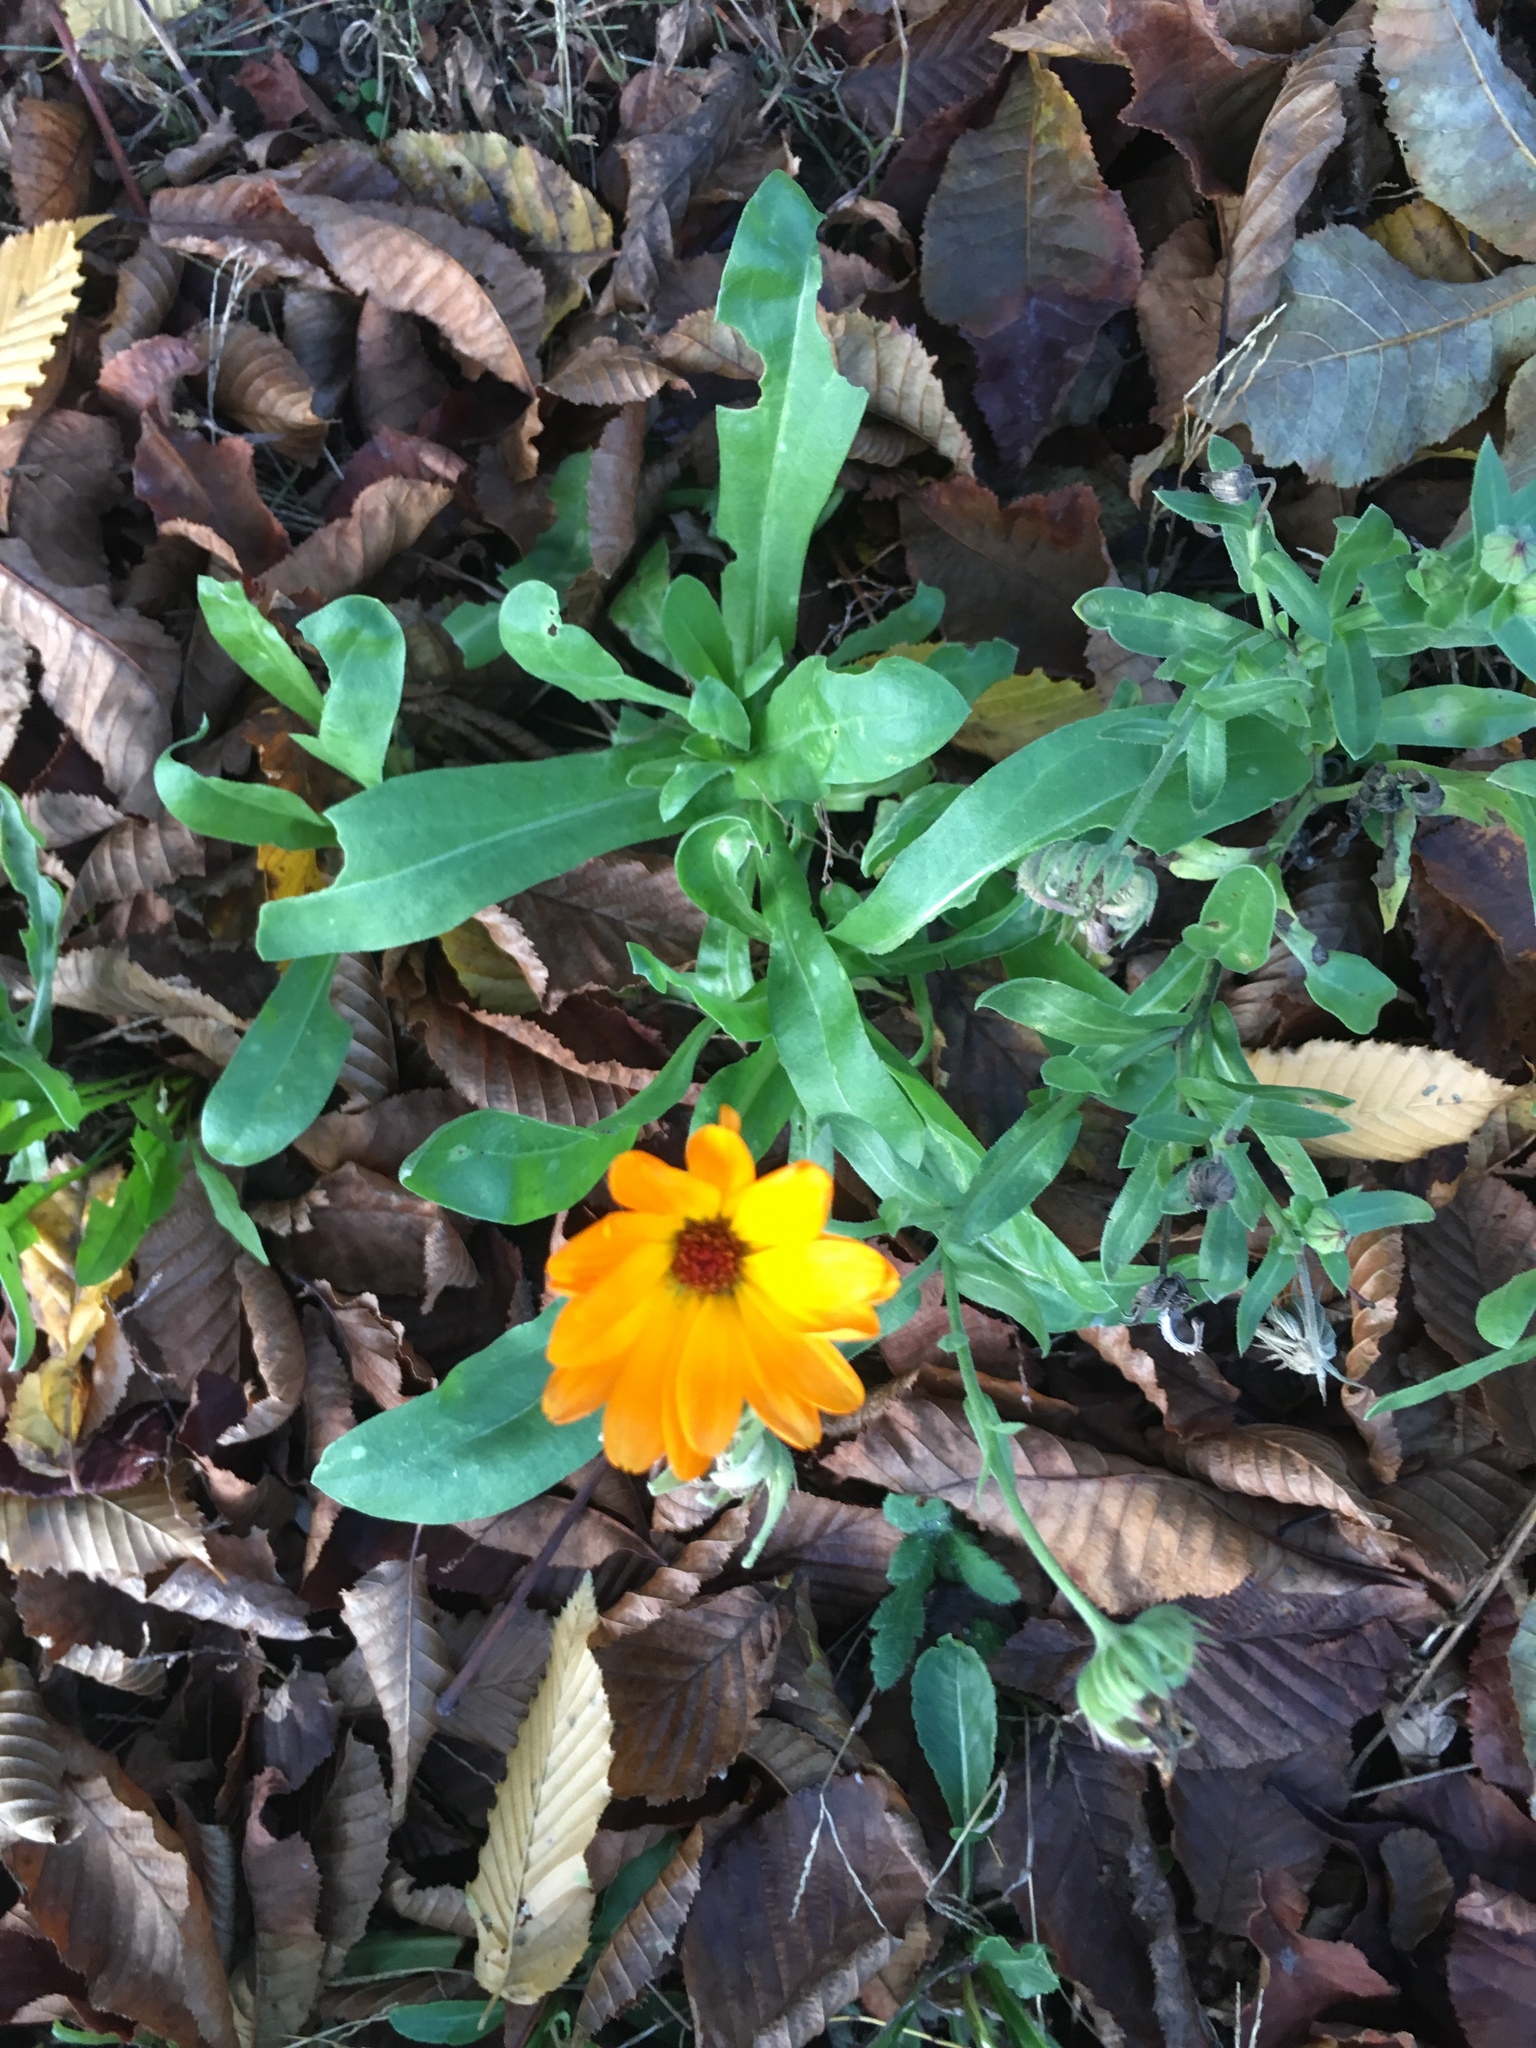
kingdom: Plantae
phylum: Tracheophyta
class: Magnoliopsida
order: Asterales
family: Asteraceae
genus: Calendula
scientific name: Calendula officinalis
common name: Pot marigold
